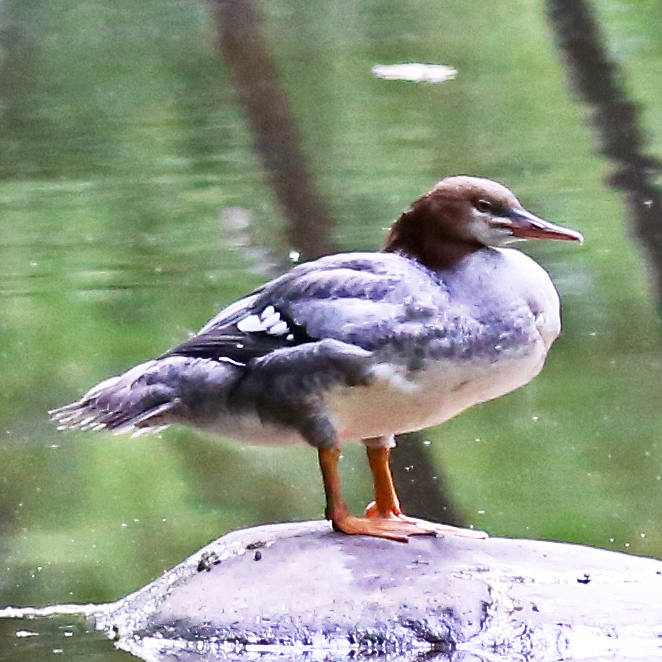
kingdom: Animalia
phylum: Chordata
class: Aves
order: Anseriformes
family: Anatidae
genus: Mergus
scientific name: Mergus merganser
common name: Common merganser
